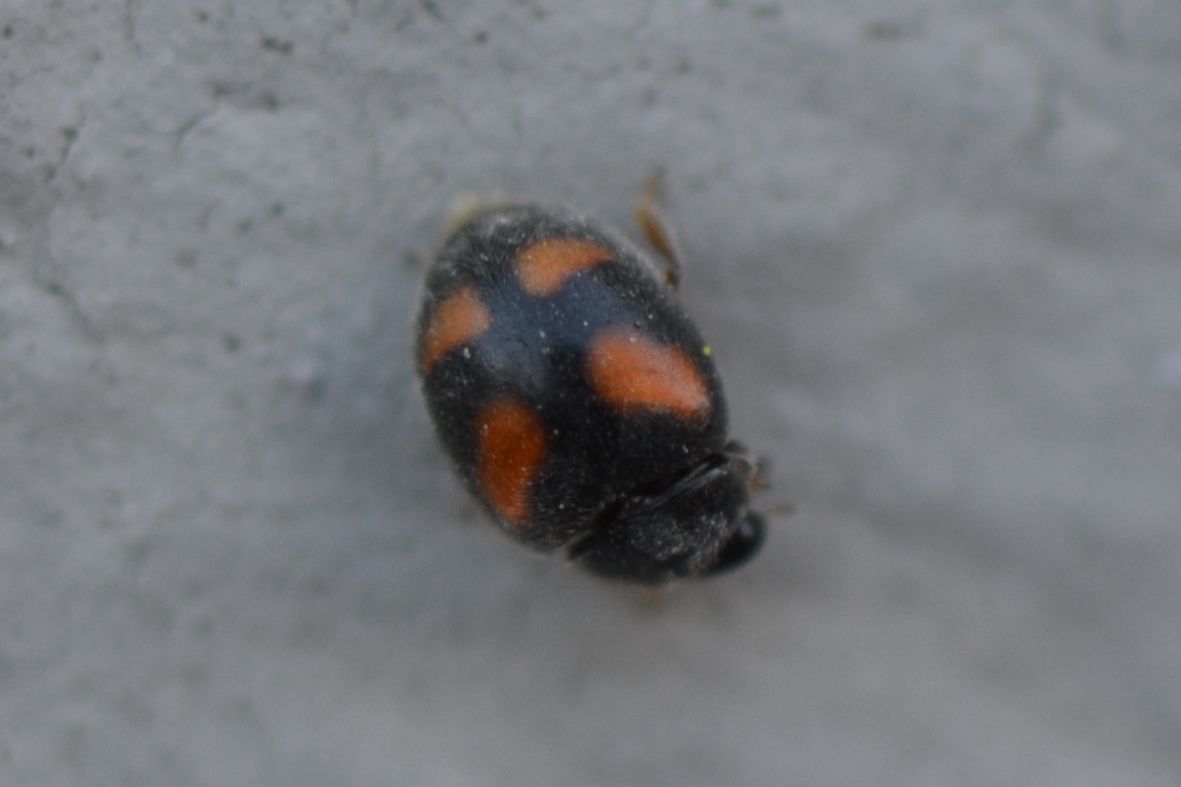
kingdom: Animalia
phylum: Arthropoda
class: Insecta
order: Coleoptera
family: Coccinellidae
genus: Nephus
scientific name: Nephus quadrimaculatus
